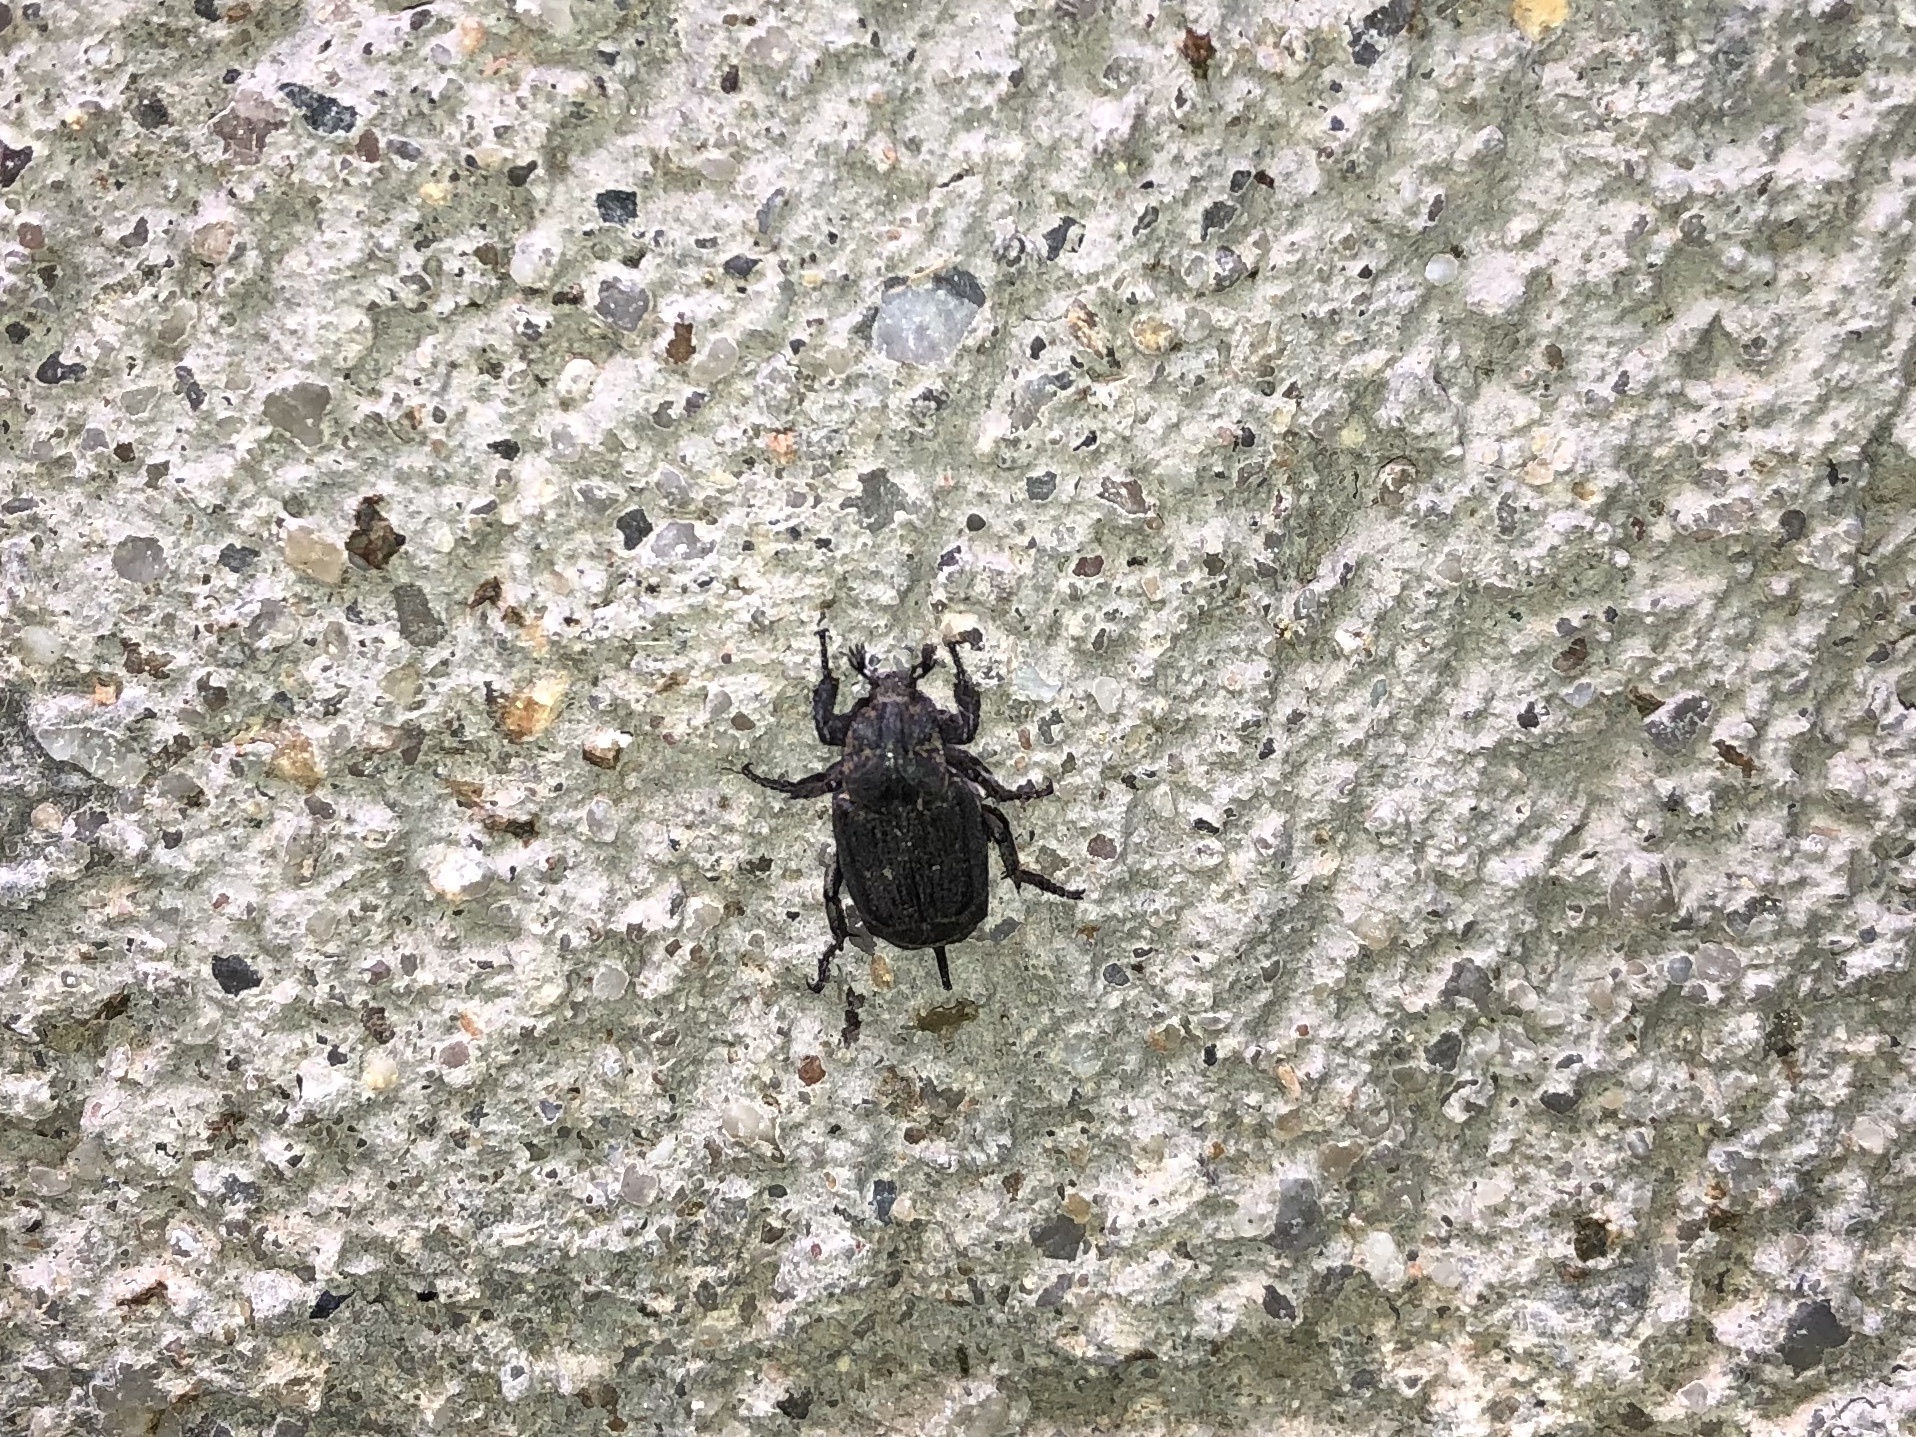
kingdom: Animalia
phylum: Arthropoda
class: Insecta
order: Coleoptera
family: Scarabaeidae
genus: Valgus
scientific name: Valgus hemipterus
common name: Bug flower chafer
